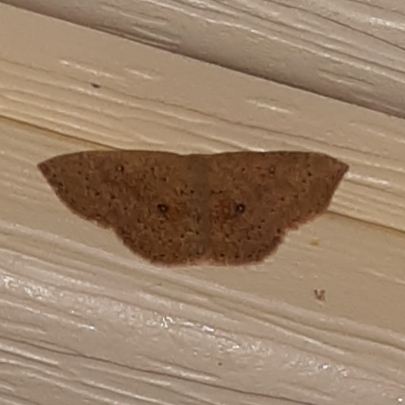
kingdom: Animalia
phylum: Arthropoda
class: Insecta
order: Lepidoptera
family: Geometridae
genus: Cyclophora
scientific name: Cyclophora packardi
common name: Packard's wave
